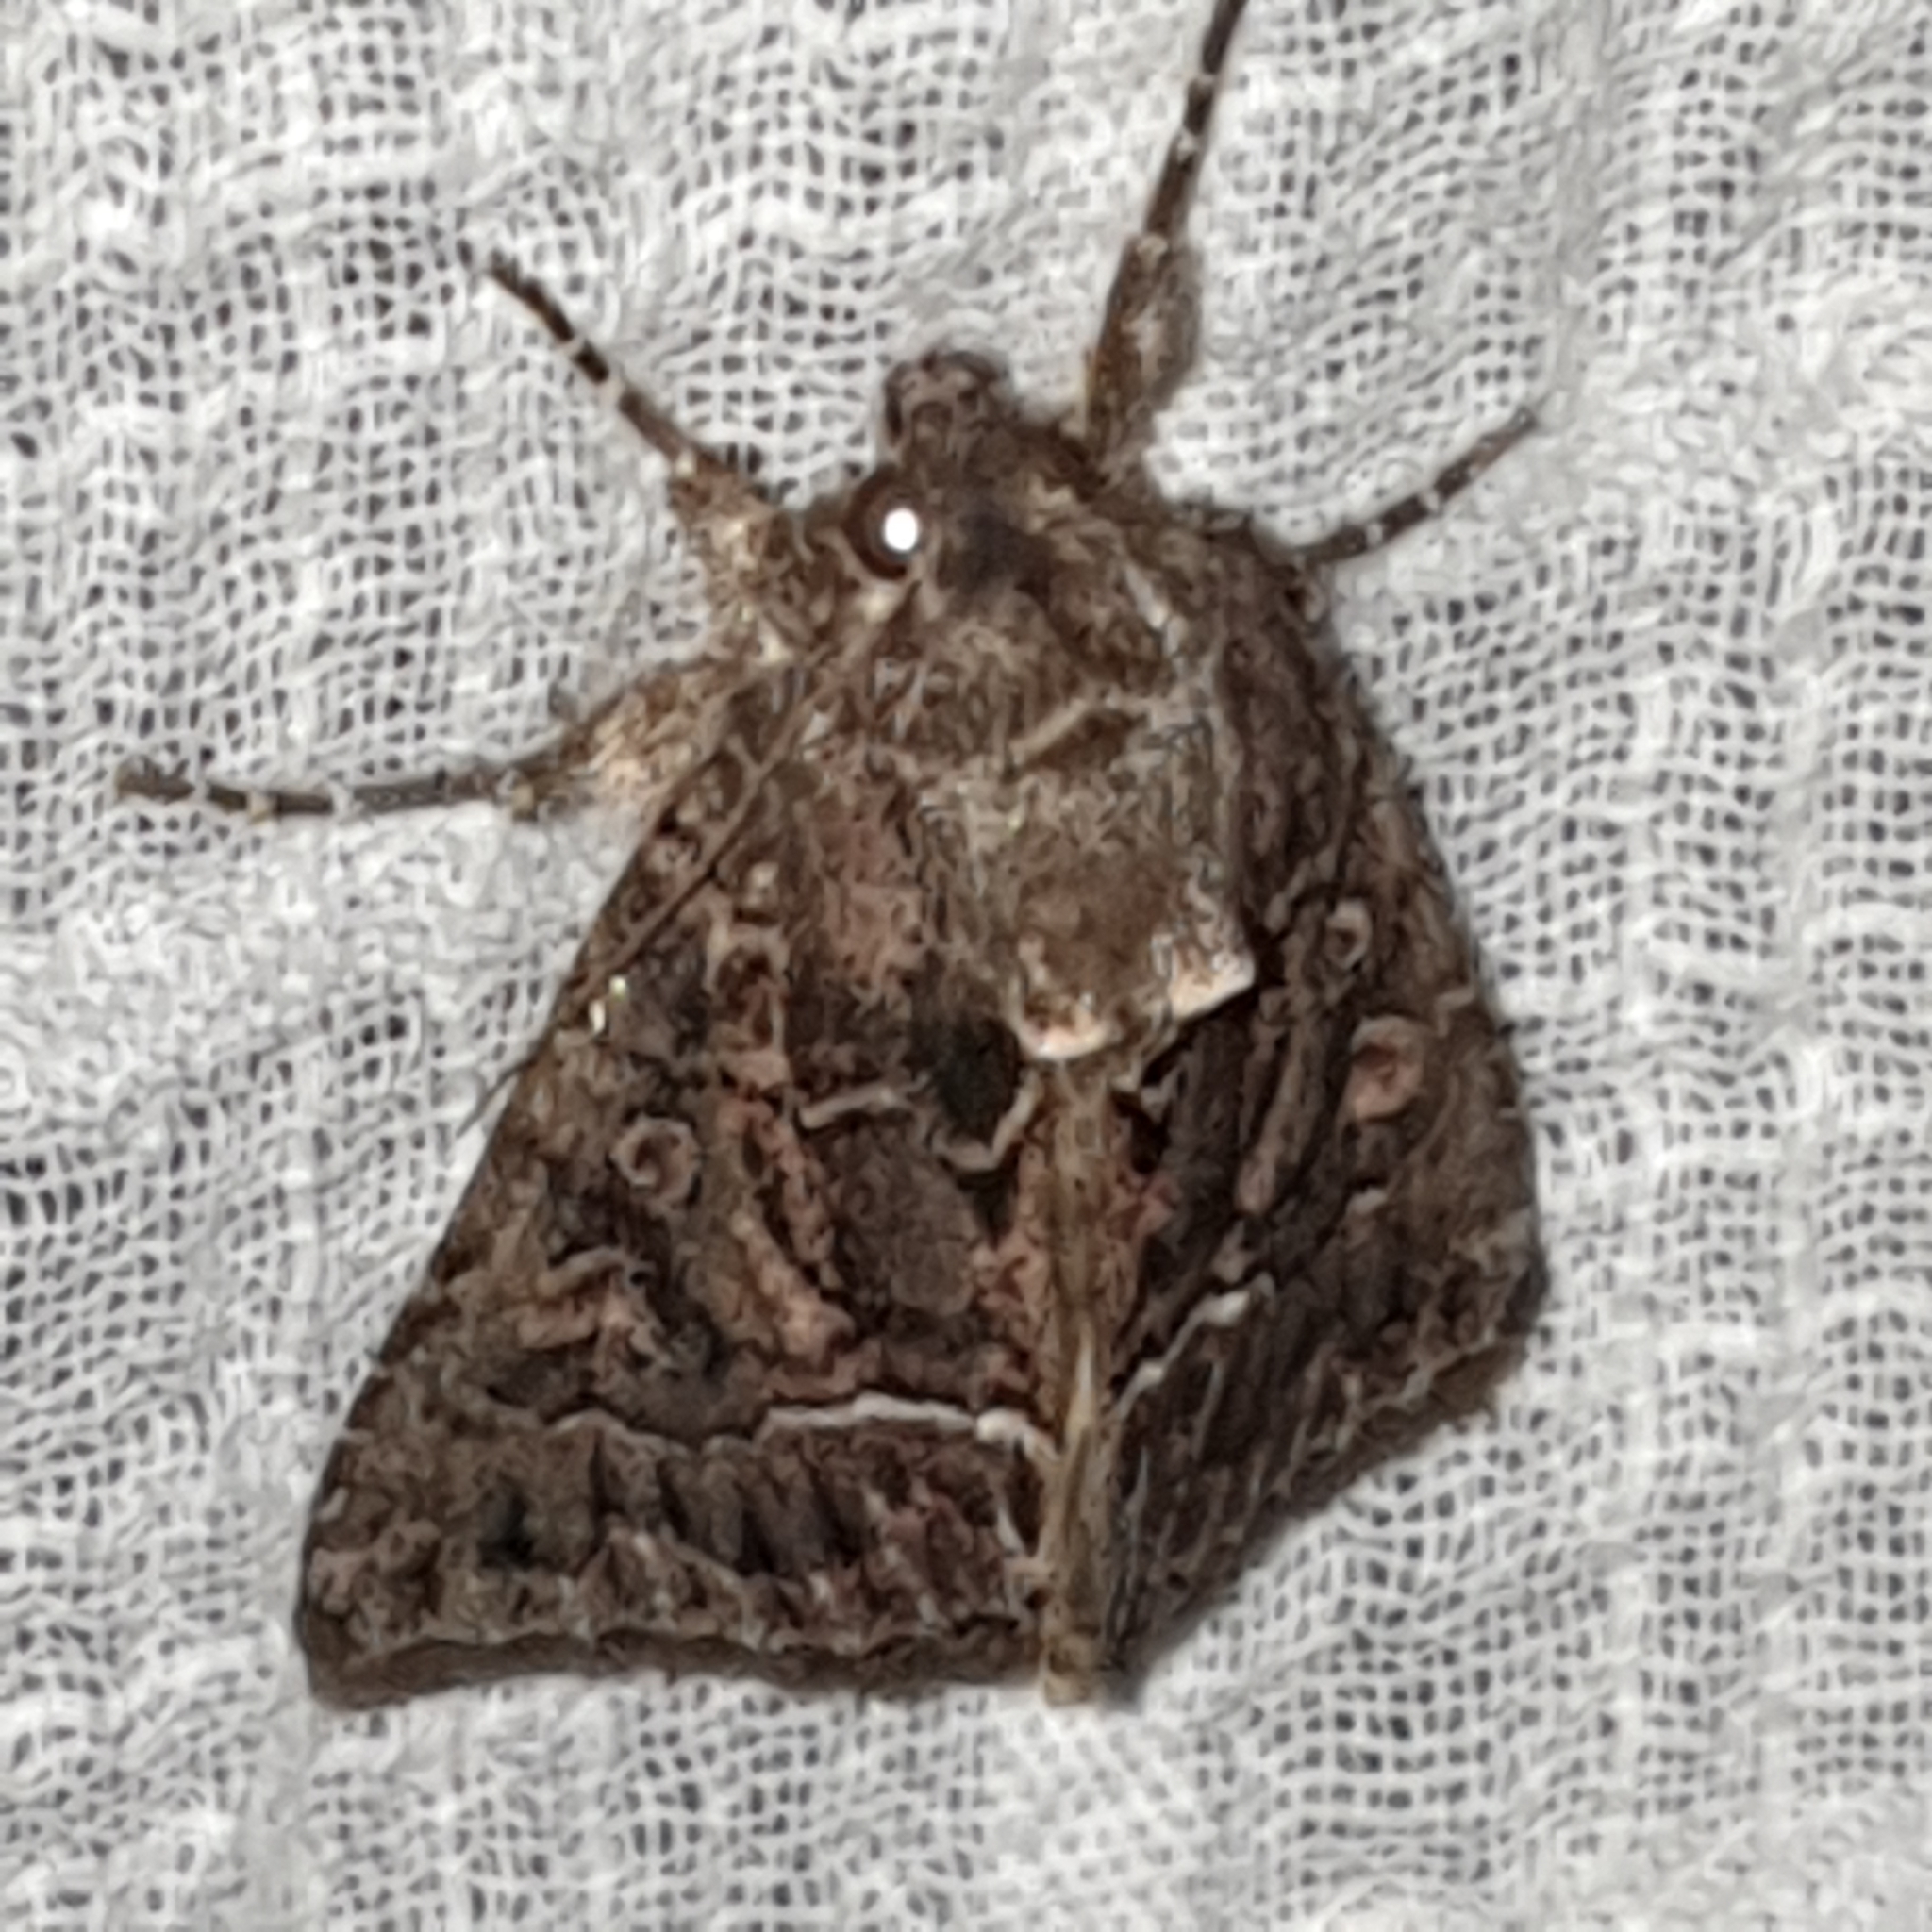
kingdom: Animalia
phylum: Arthropoda
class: Insecta
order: Lepidoptera
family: Noctuidae
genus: Thalpophila
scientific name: Thalpophila matura
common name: Straw underwing
